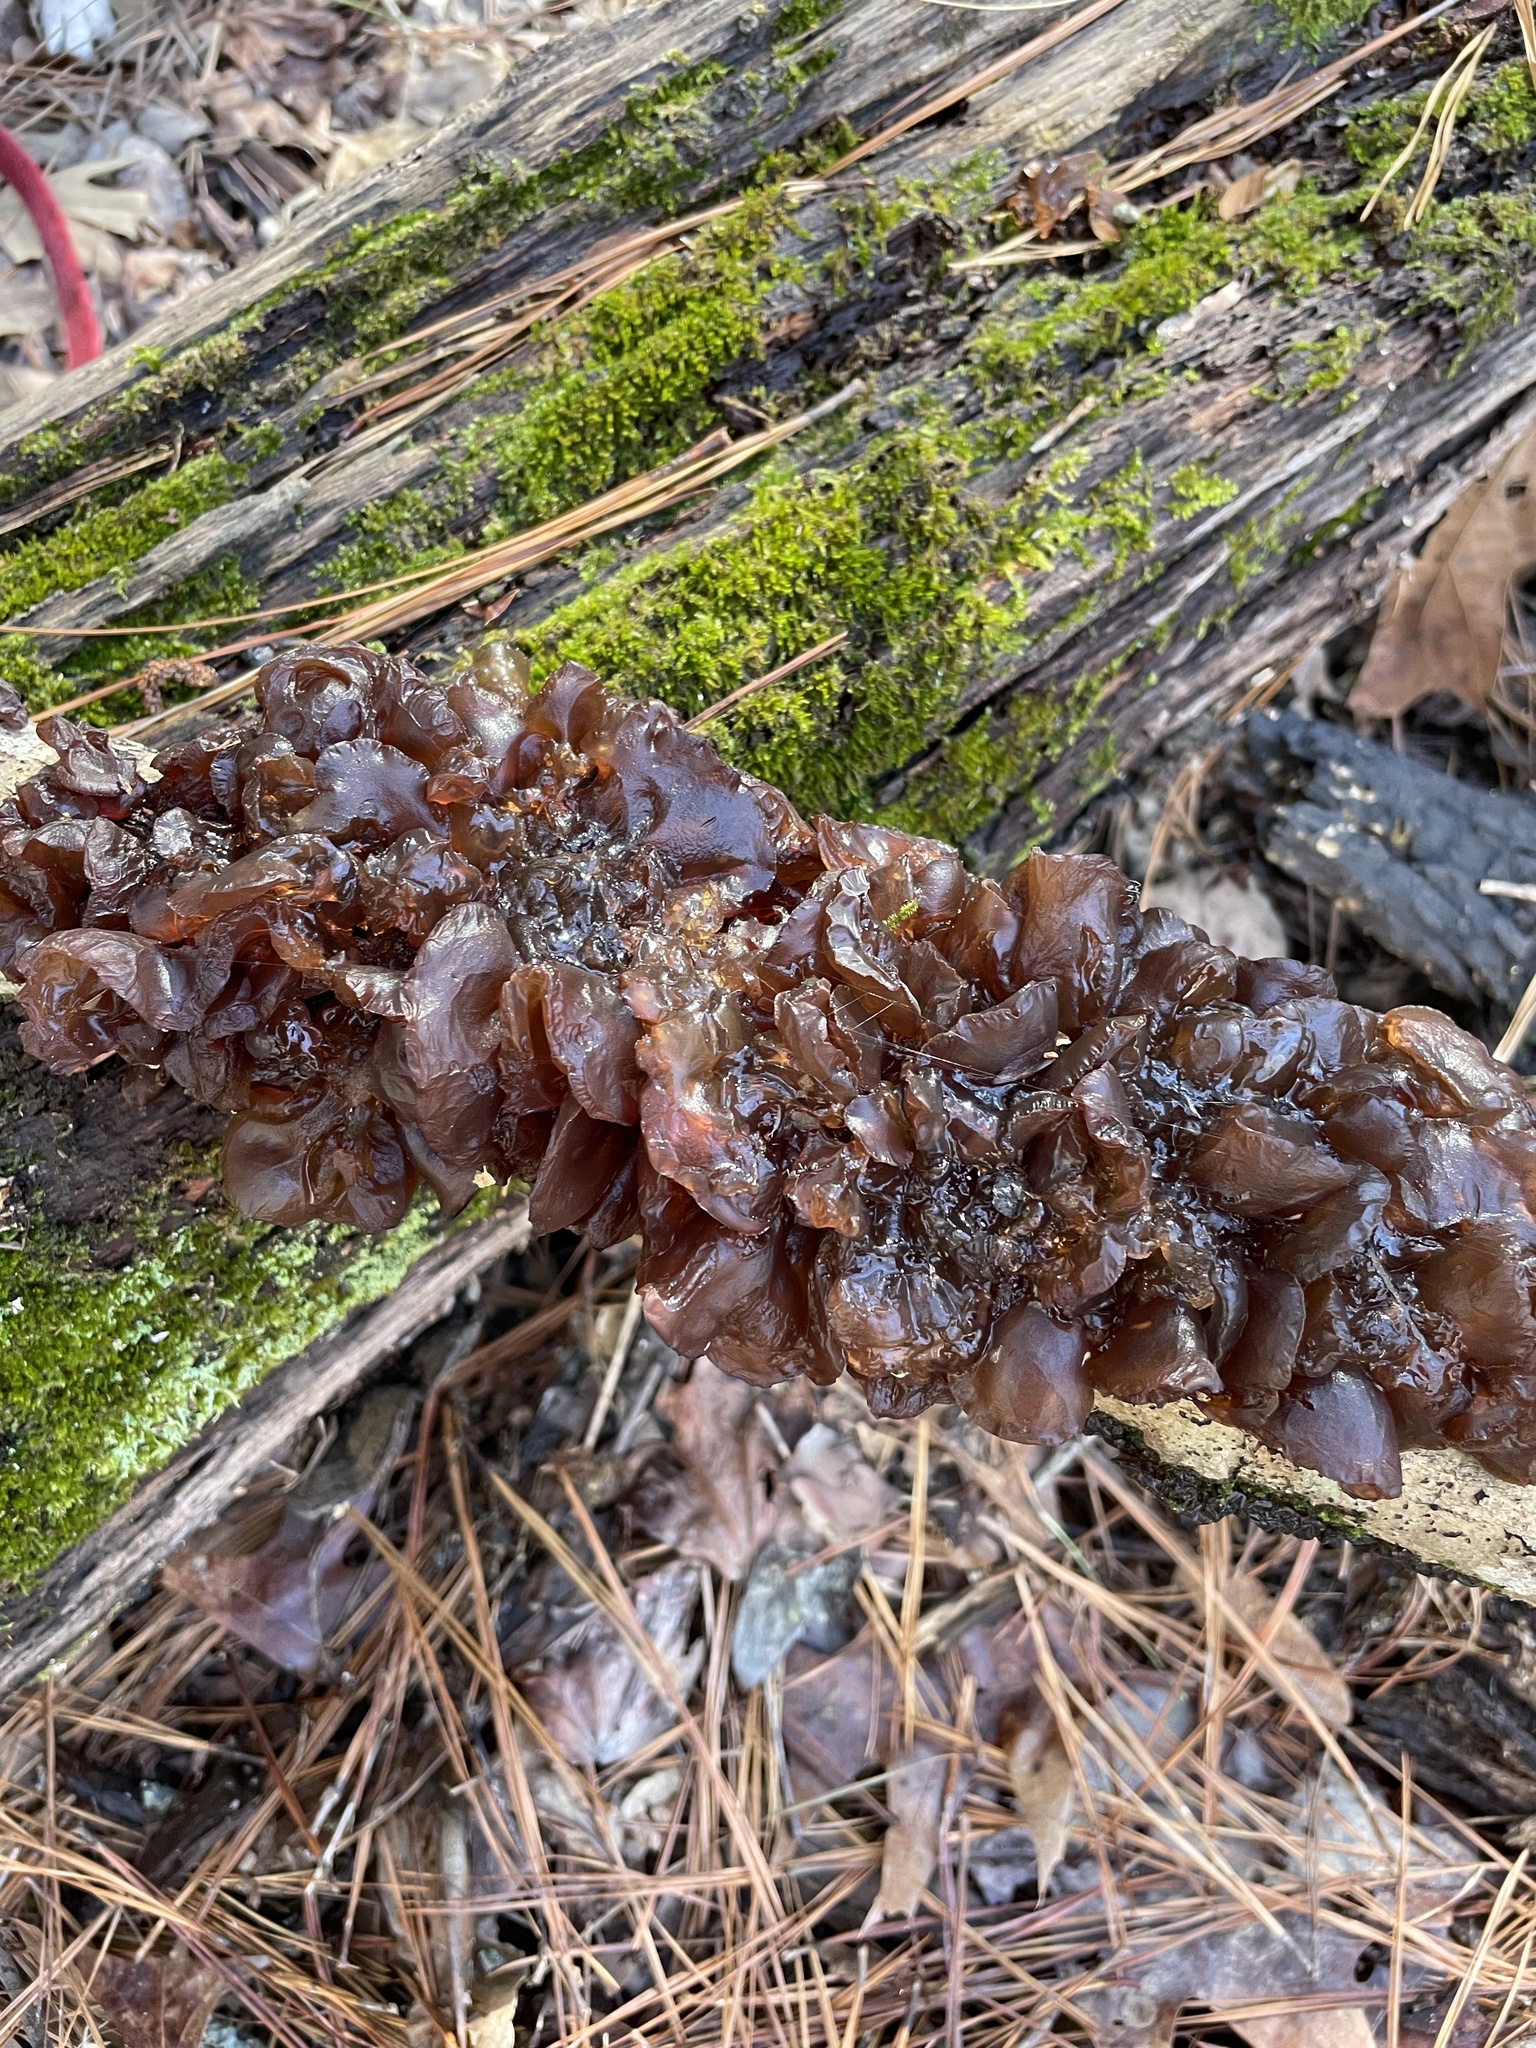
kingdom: Fungi
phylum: Basidiomycota
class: Agaricomycetes
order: Auriculariales
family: Auriculariaceae
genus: Exidia
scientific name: Exidia
